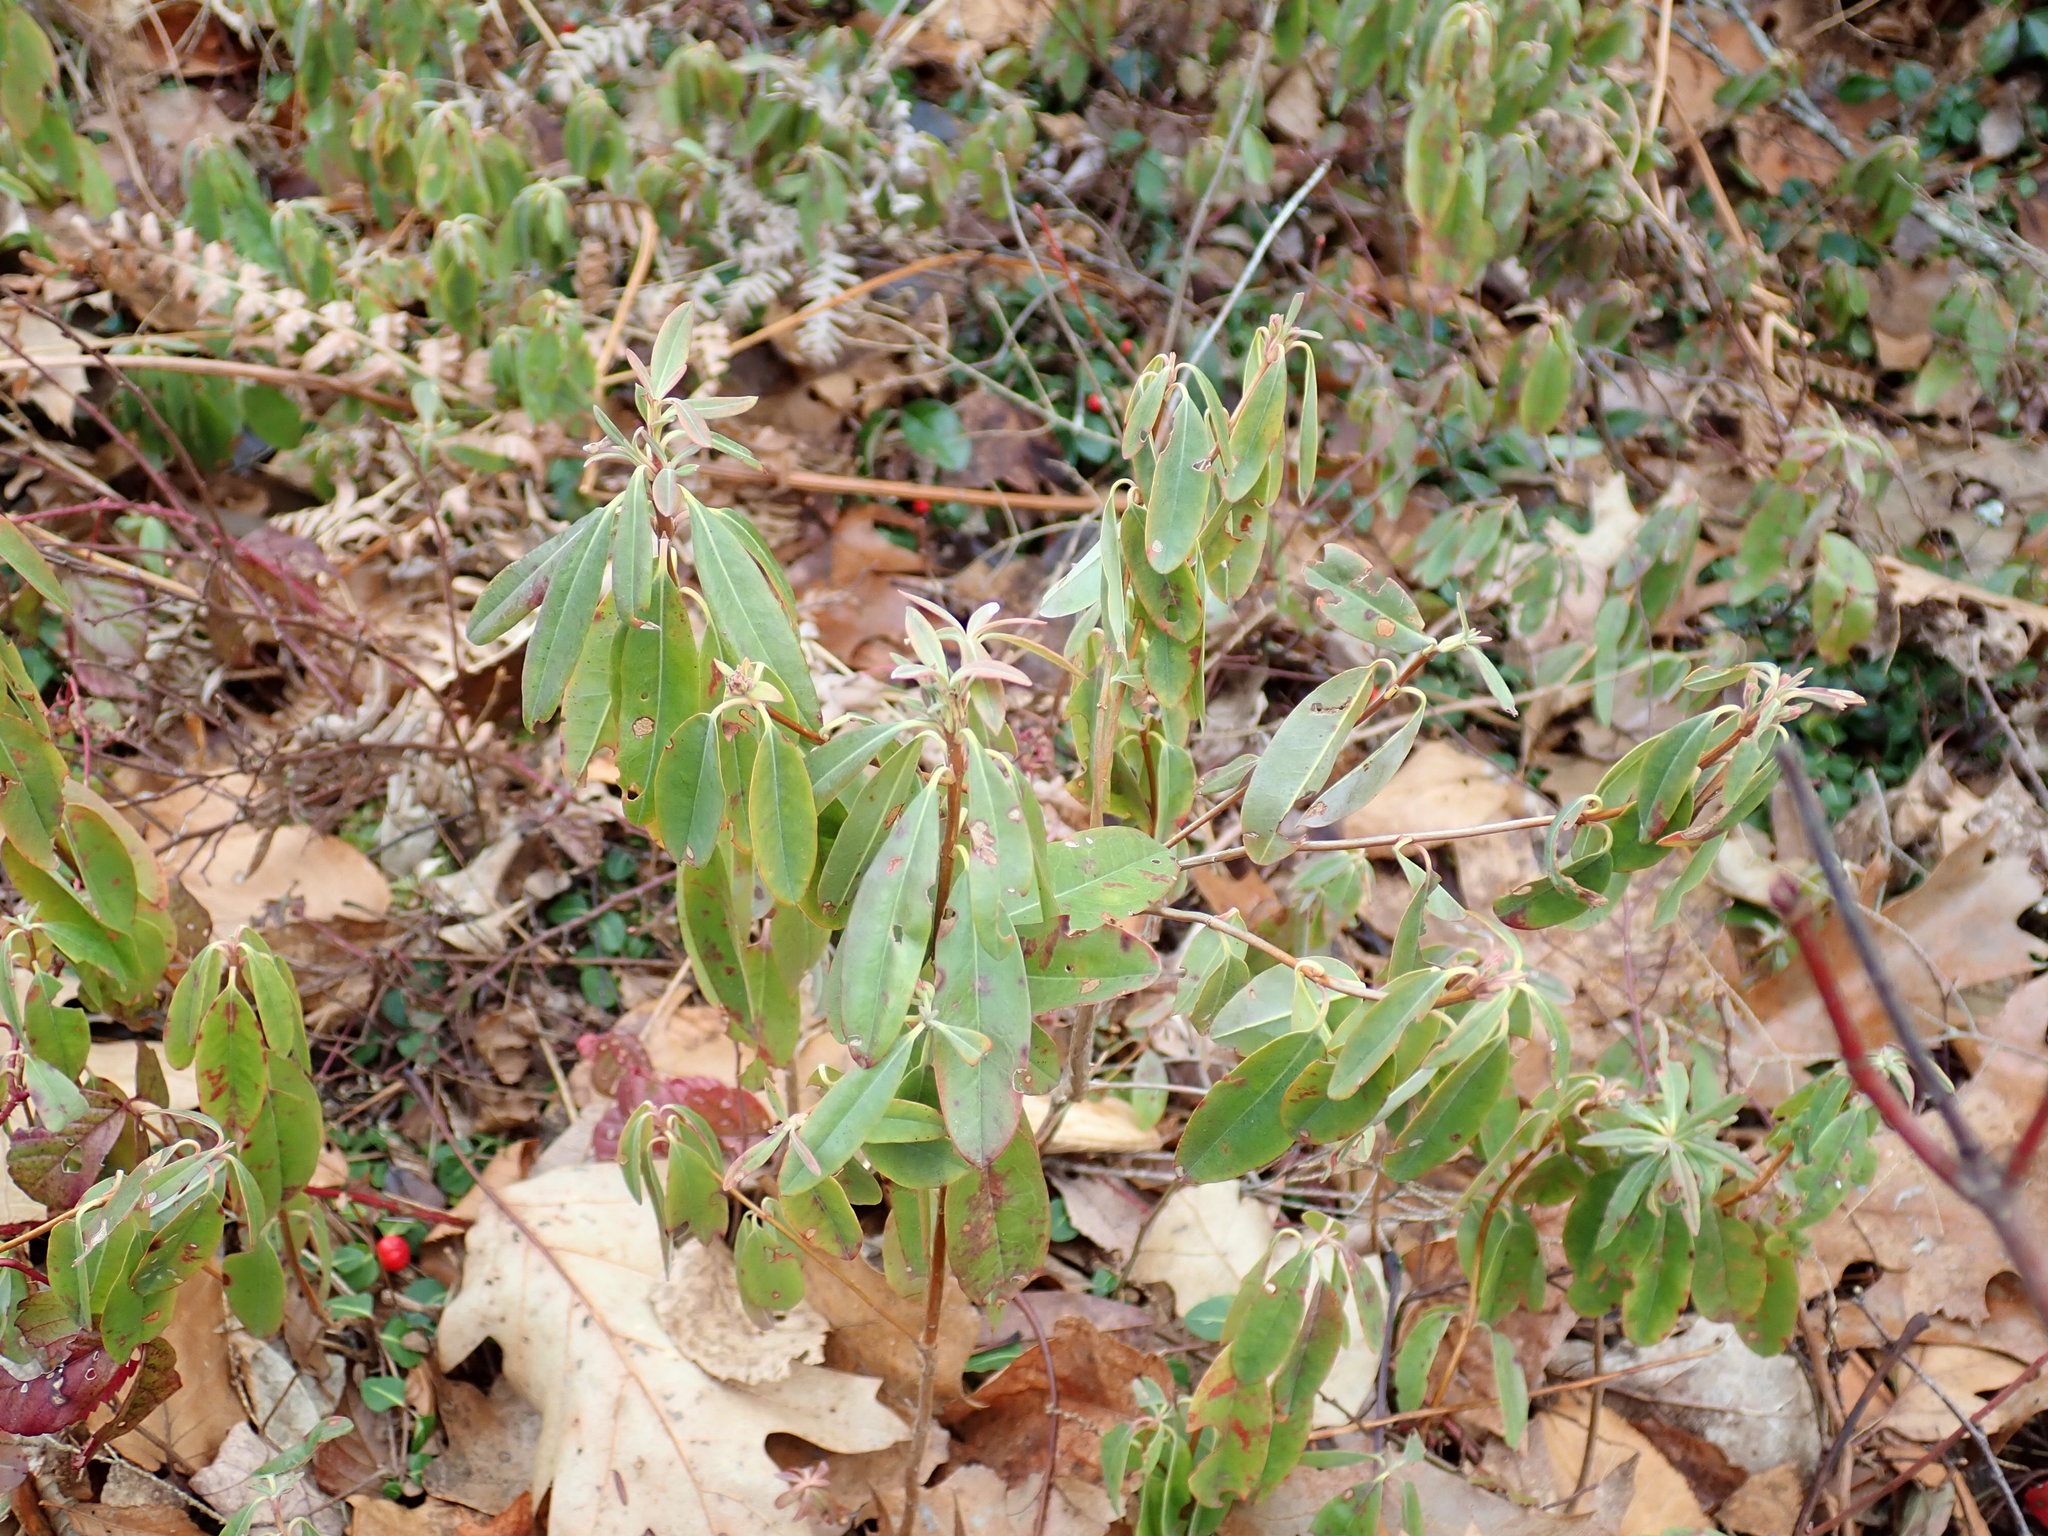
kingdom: Plantae
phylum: Tracheophyta
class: Magnoliopsida
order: Ericales
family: Ericaceae
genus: Kalmia
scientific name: Kalmia angustifolia
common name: Sheep-laurel
